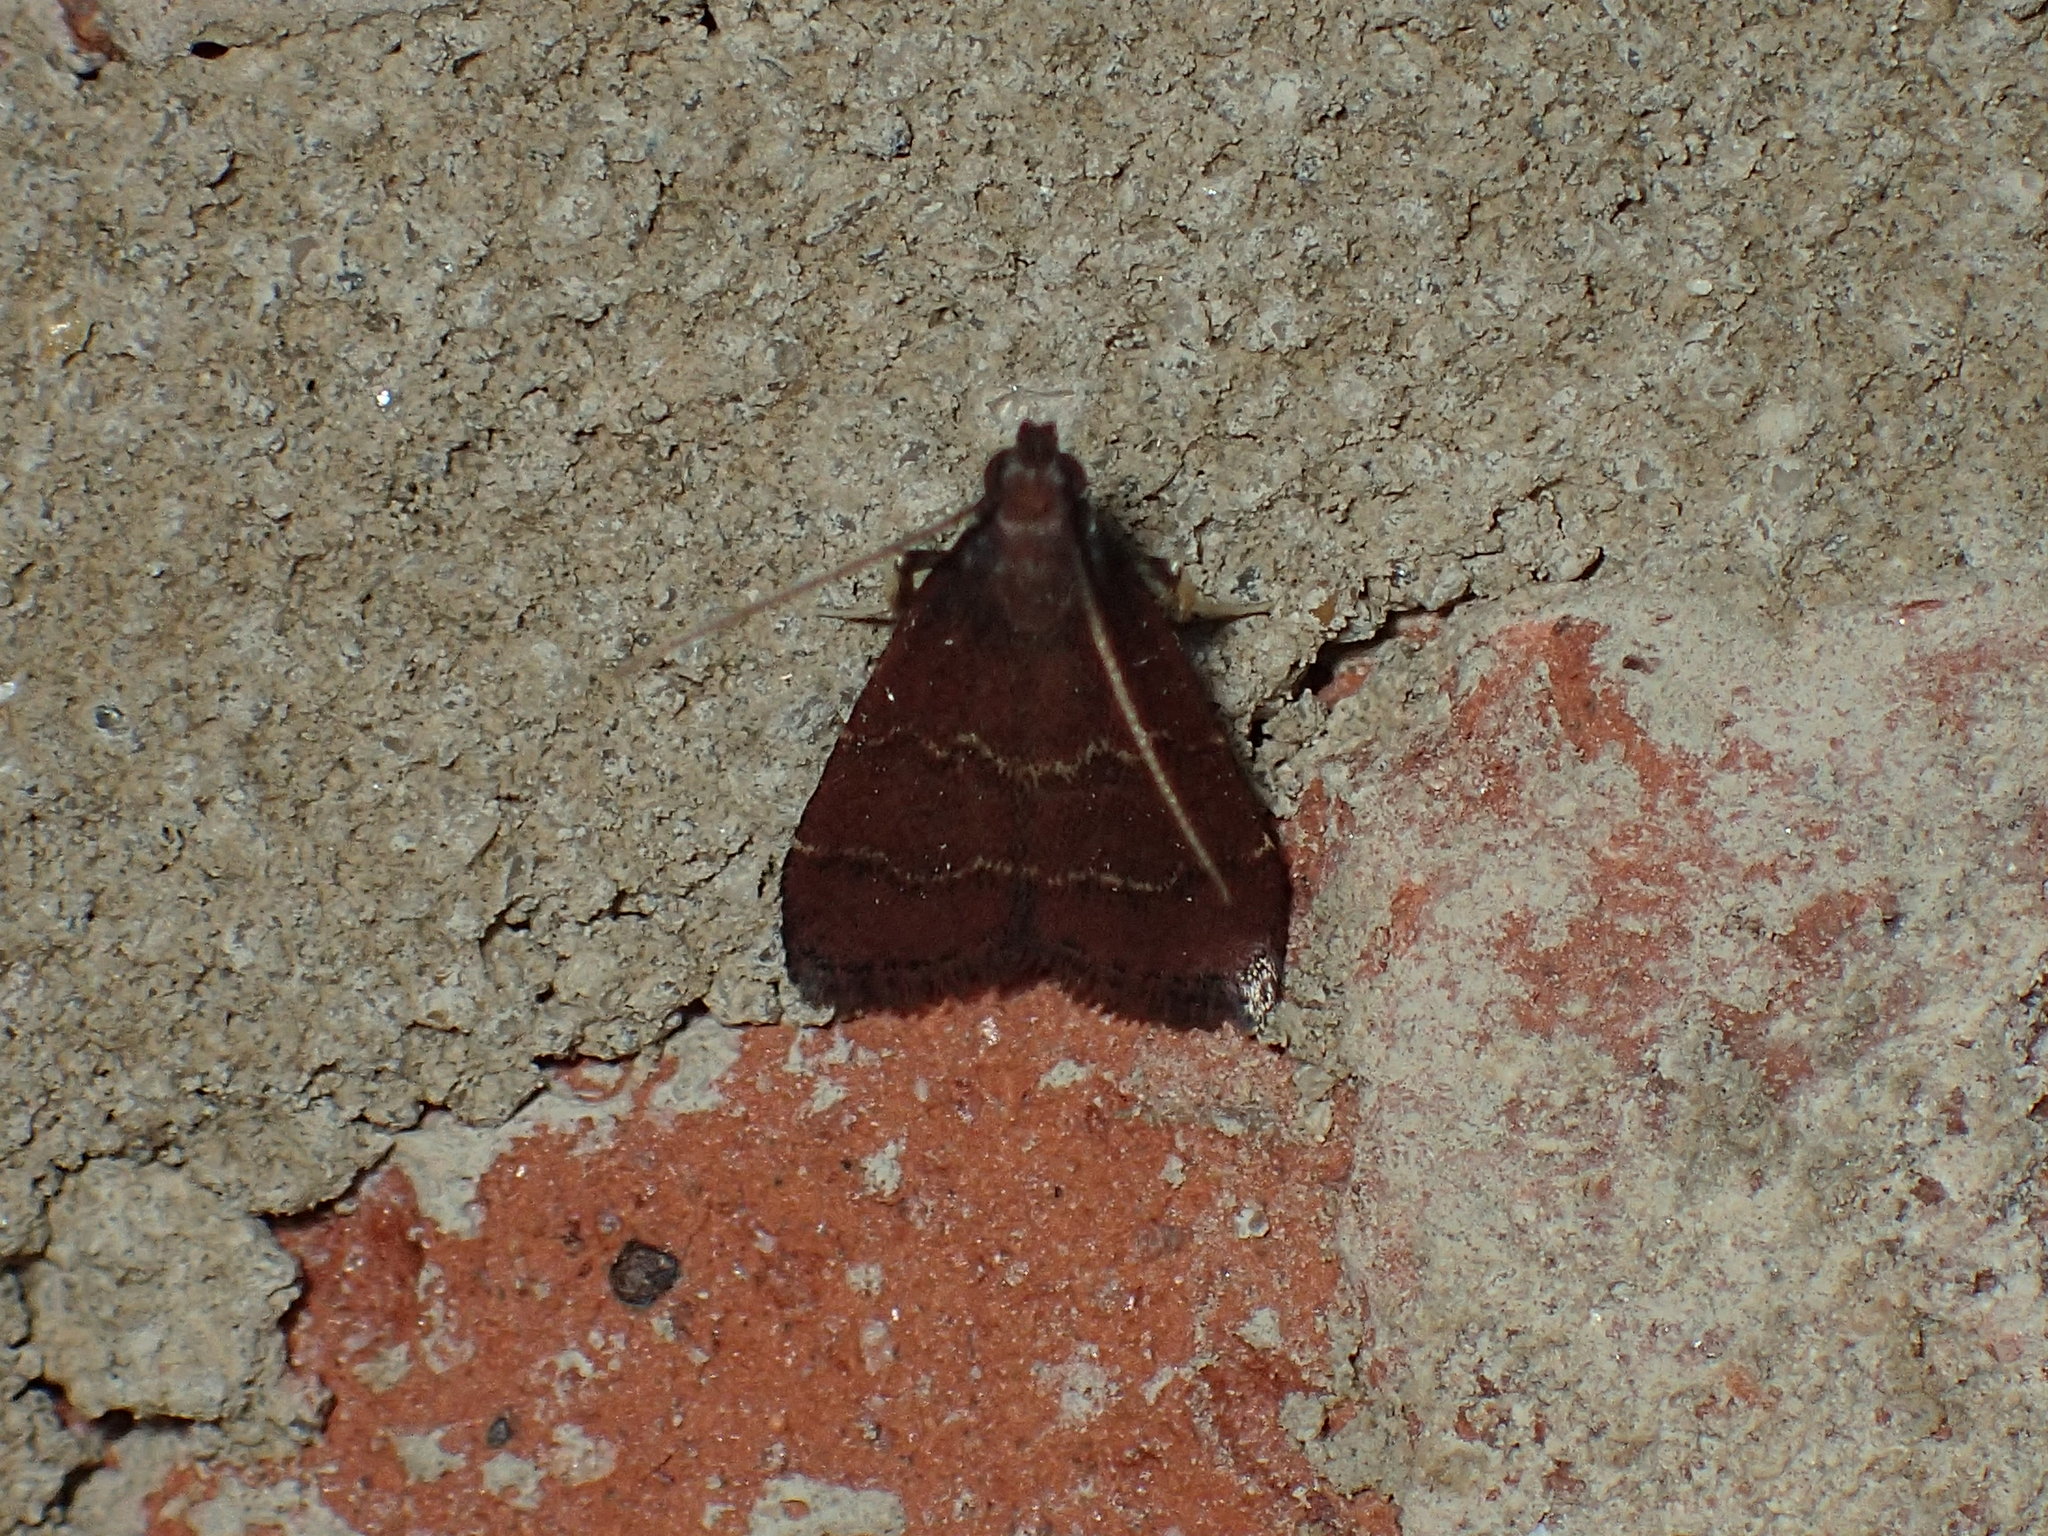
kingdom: Animalia
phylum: Arthropoda
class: Insecta
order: Lepidoptera
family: Pyralidae
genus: Arta
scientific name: Arta
